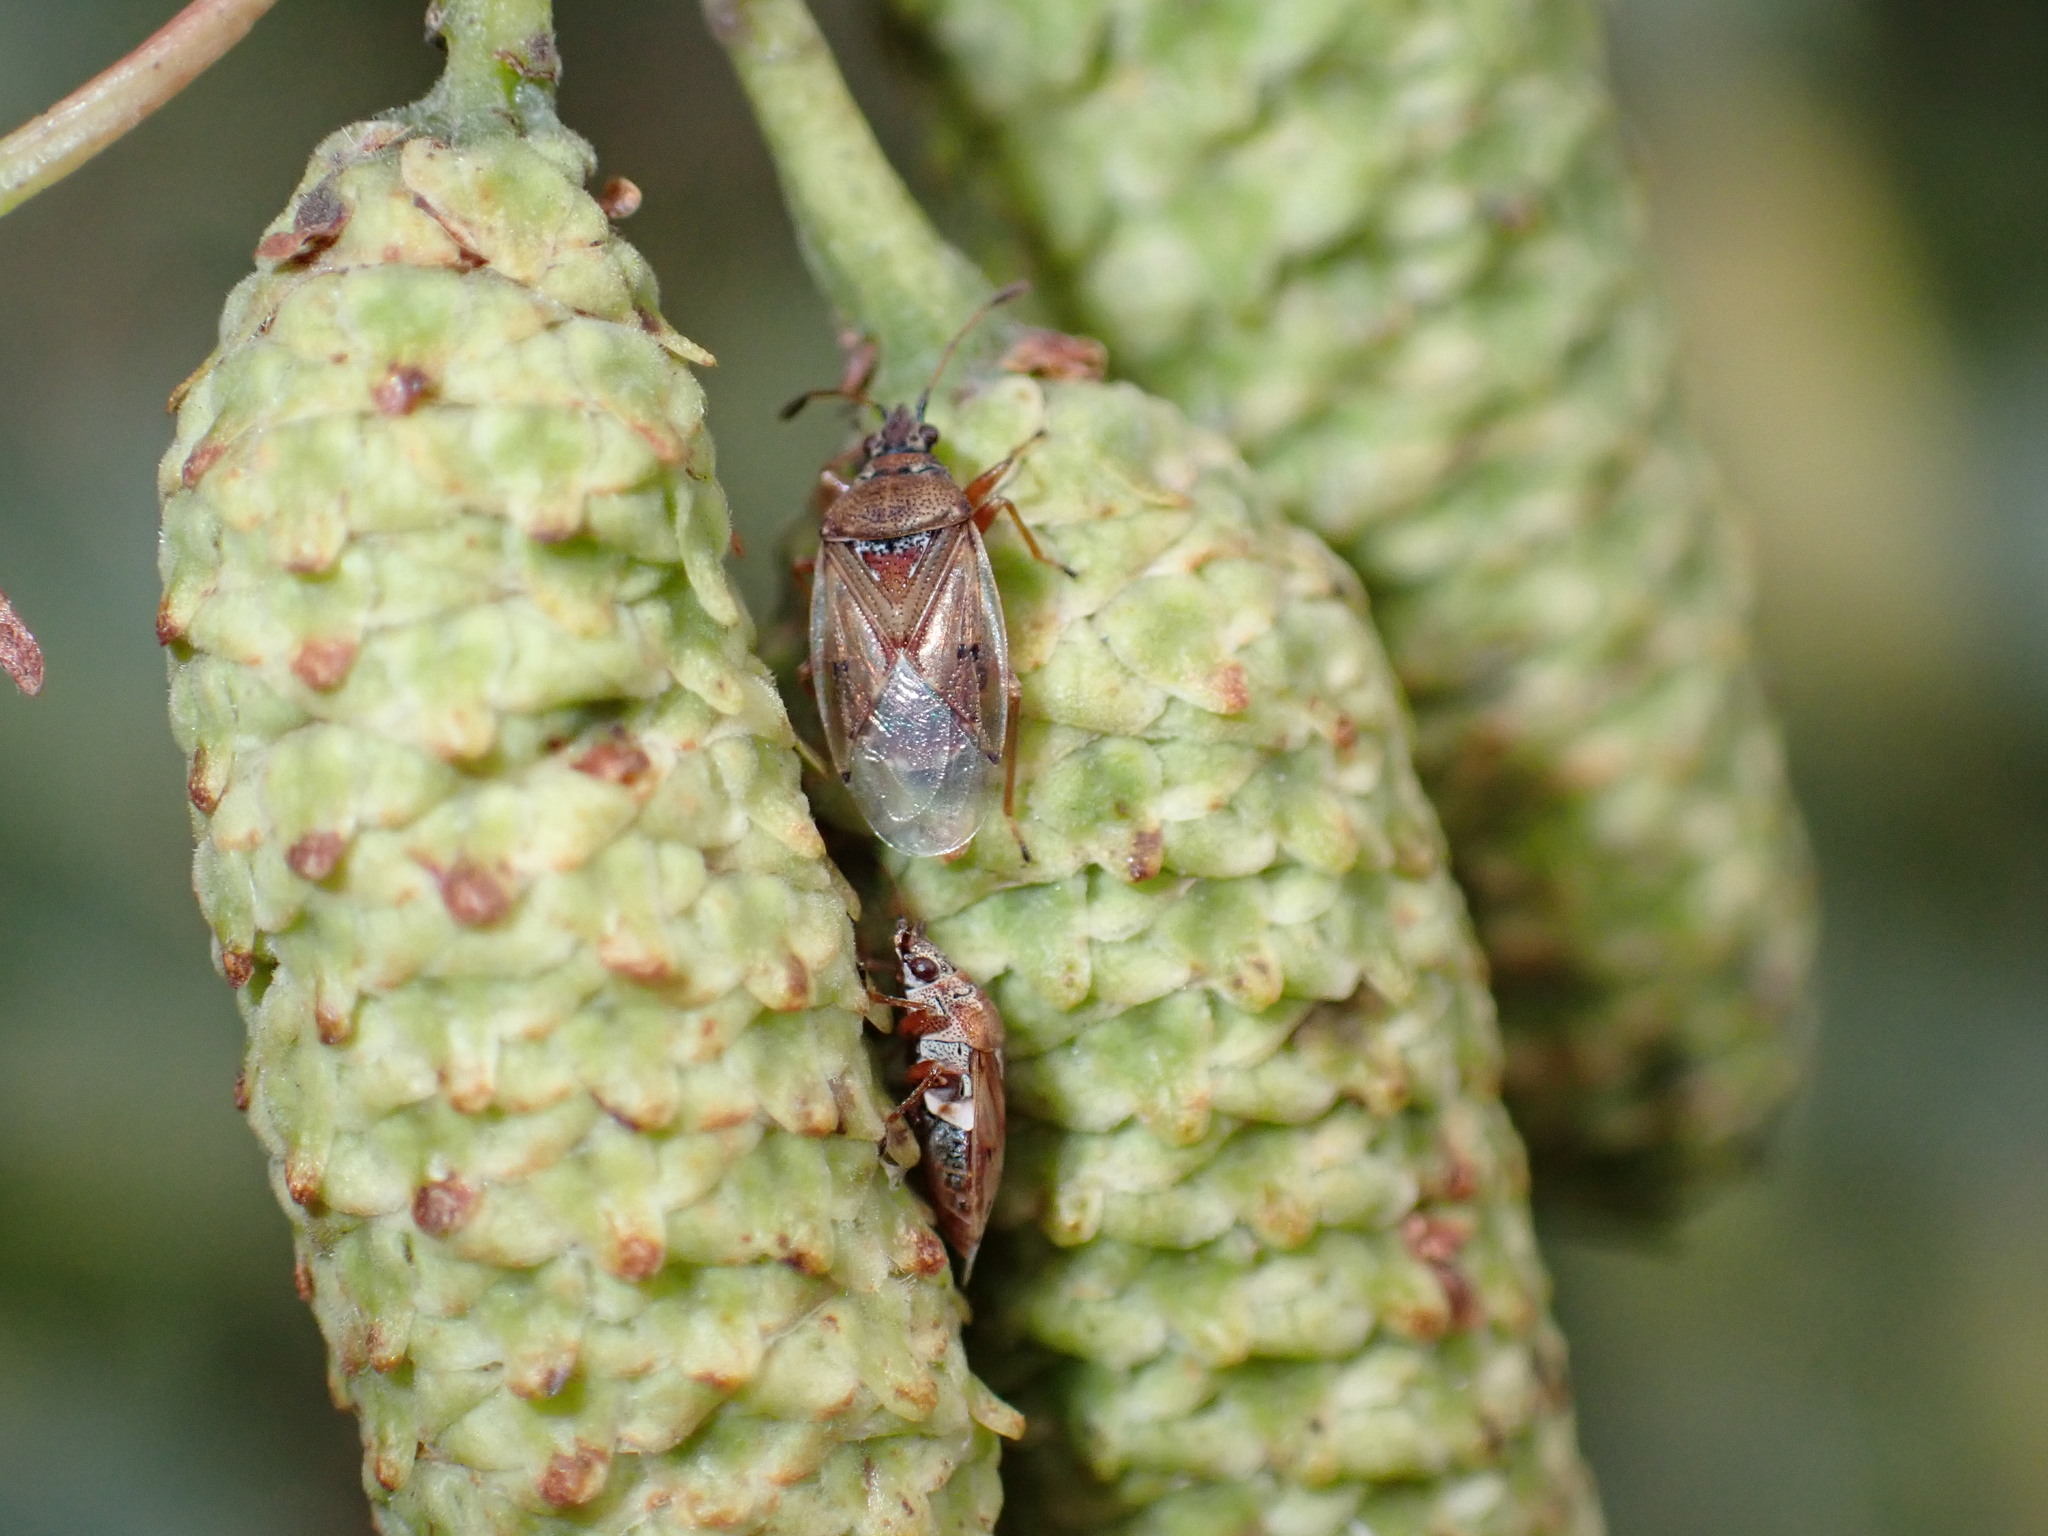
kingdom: Animalia
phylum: Arthropoda
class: Insecta
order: Hemiptera
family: Lygaeidae
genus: Kleidocerys
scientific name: Kleidocerys resedae
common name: Birch catkin bug
